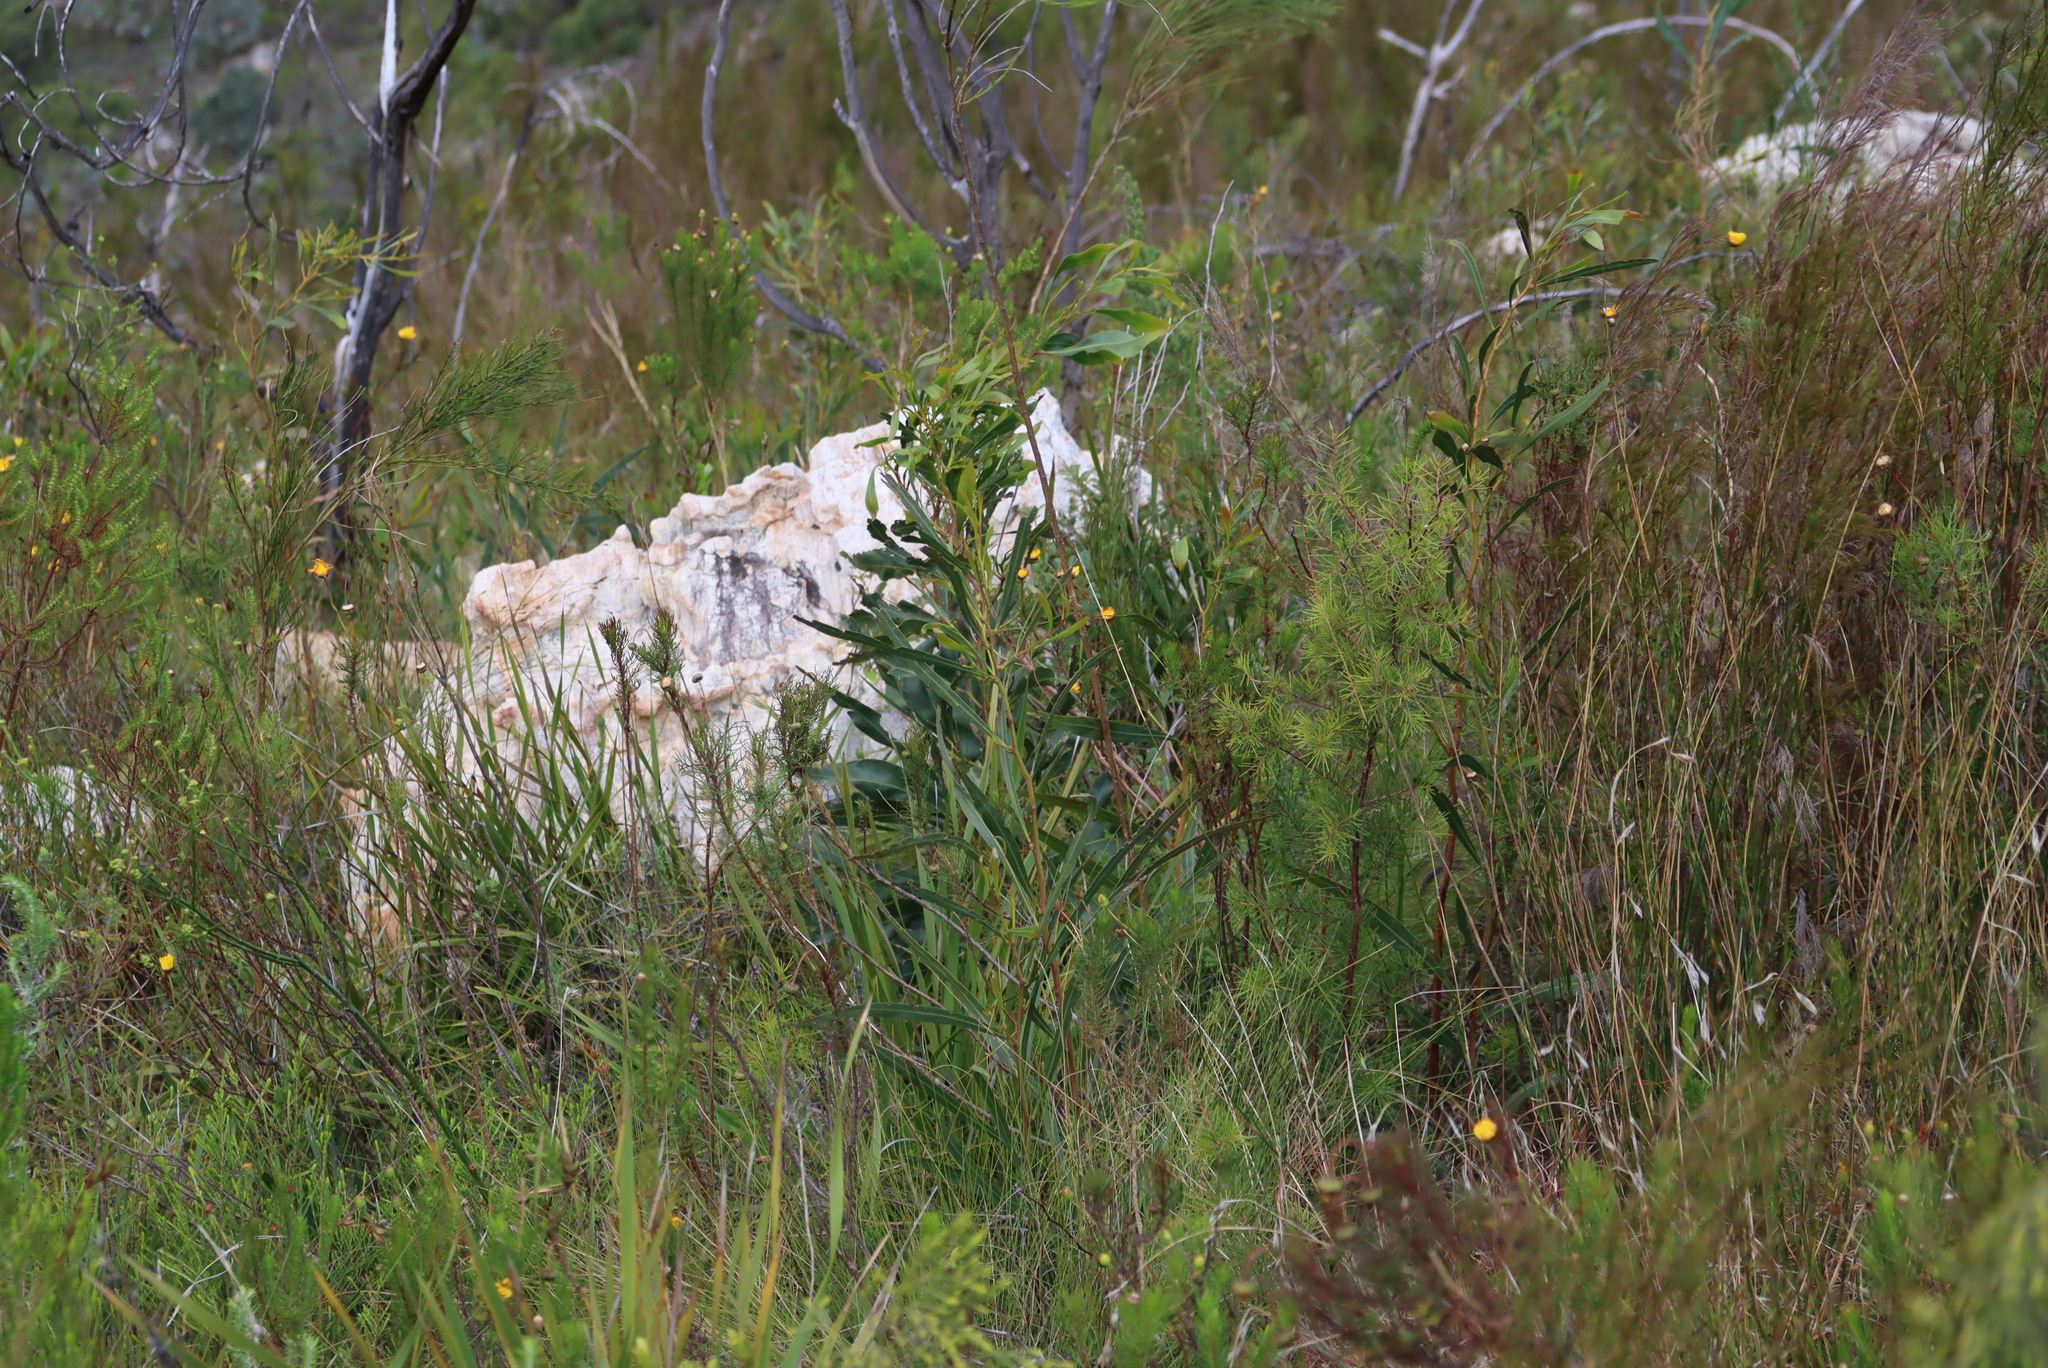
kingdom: Plantae
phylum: Tracheophyta
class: Magnoliopsida
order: Fabales
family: Fabaceae
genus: Acacia
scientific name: Acacia saligna
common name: Orange wattle
